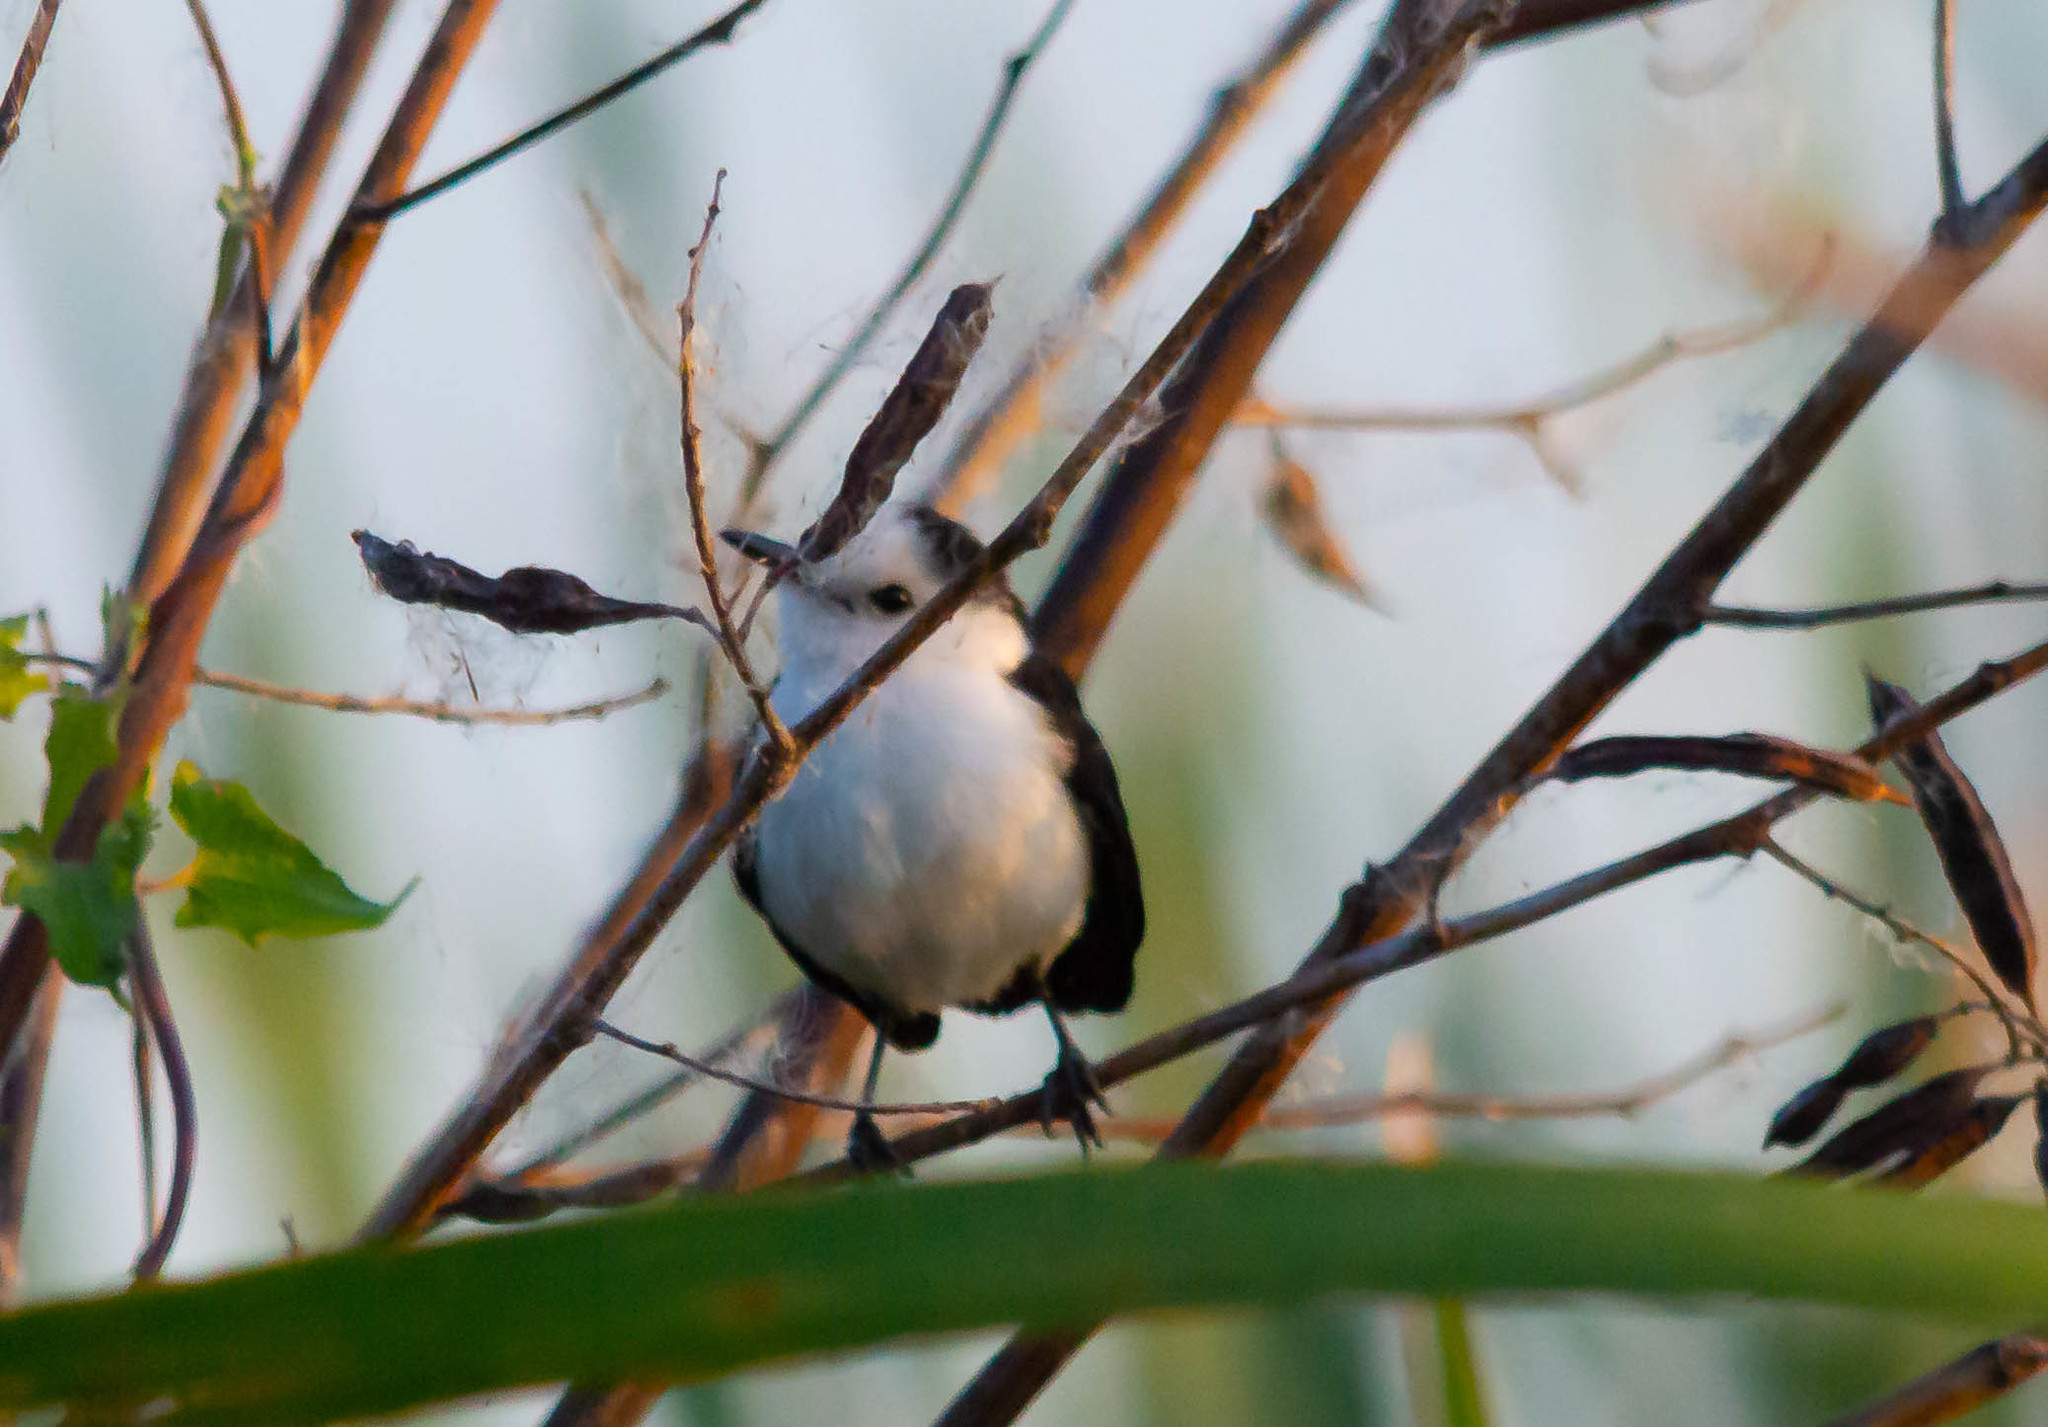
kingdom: Animalia
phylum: Chordata
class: Aves
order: Passeriformes
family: Tyrannidae
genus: Fluvicola
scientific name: Fluvicola pica
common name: Pied water-tyrant
